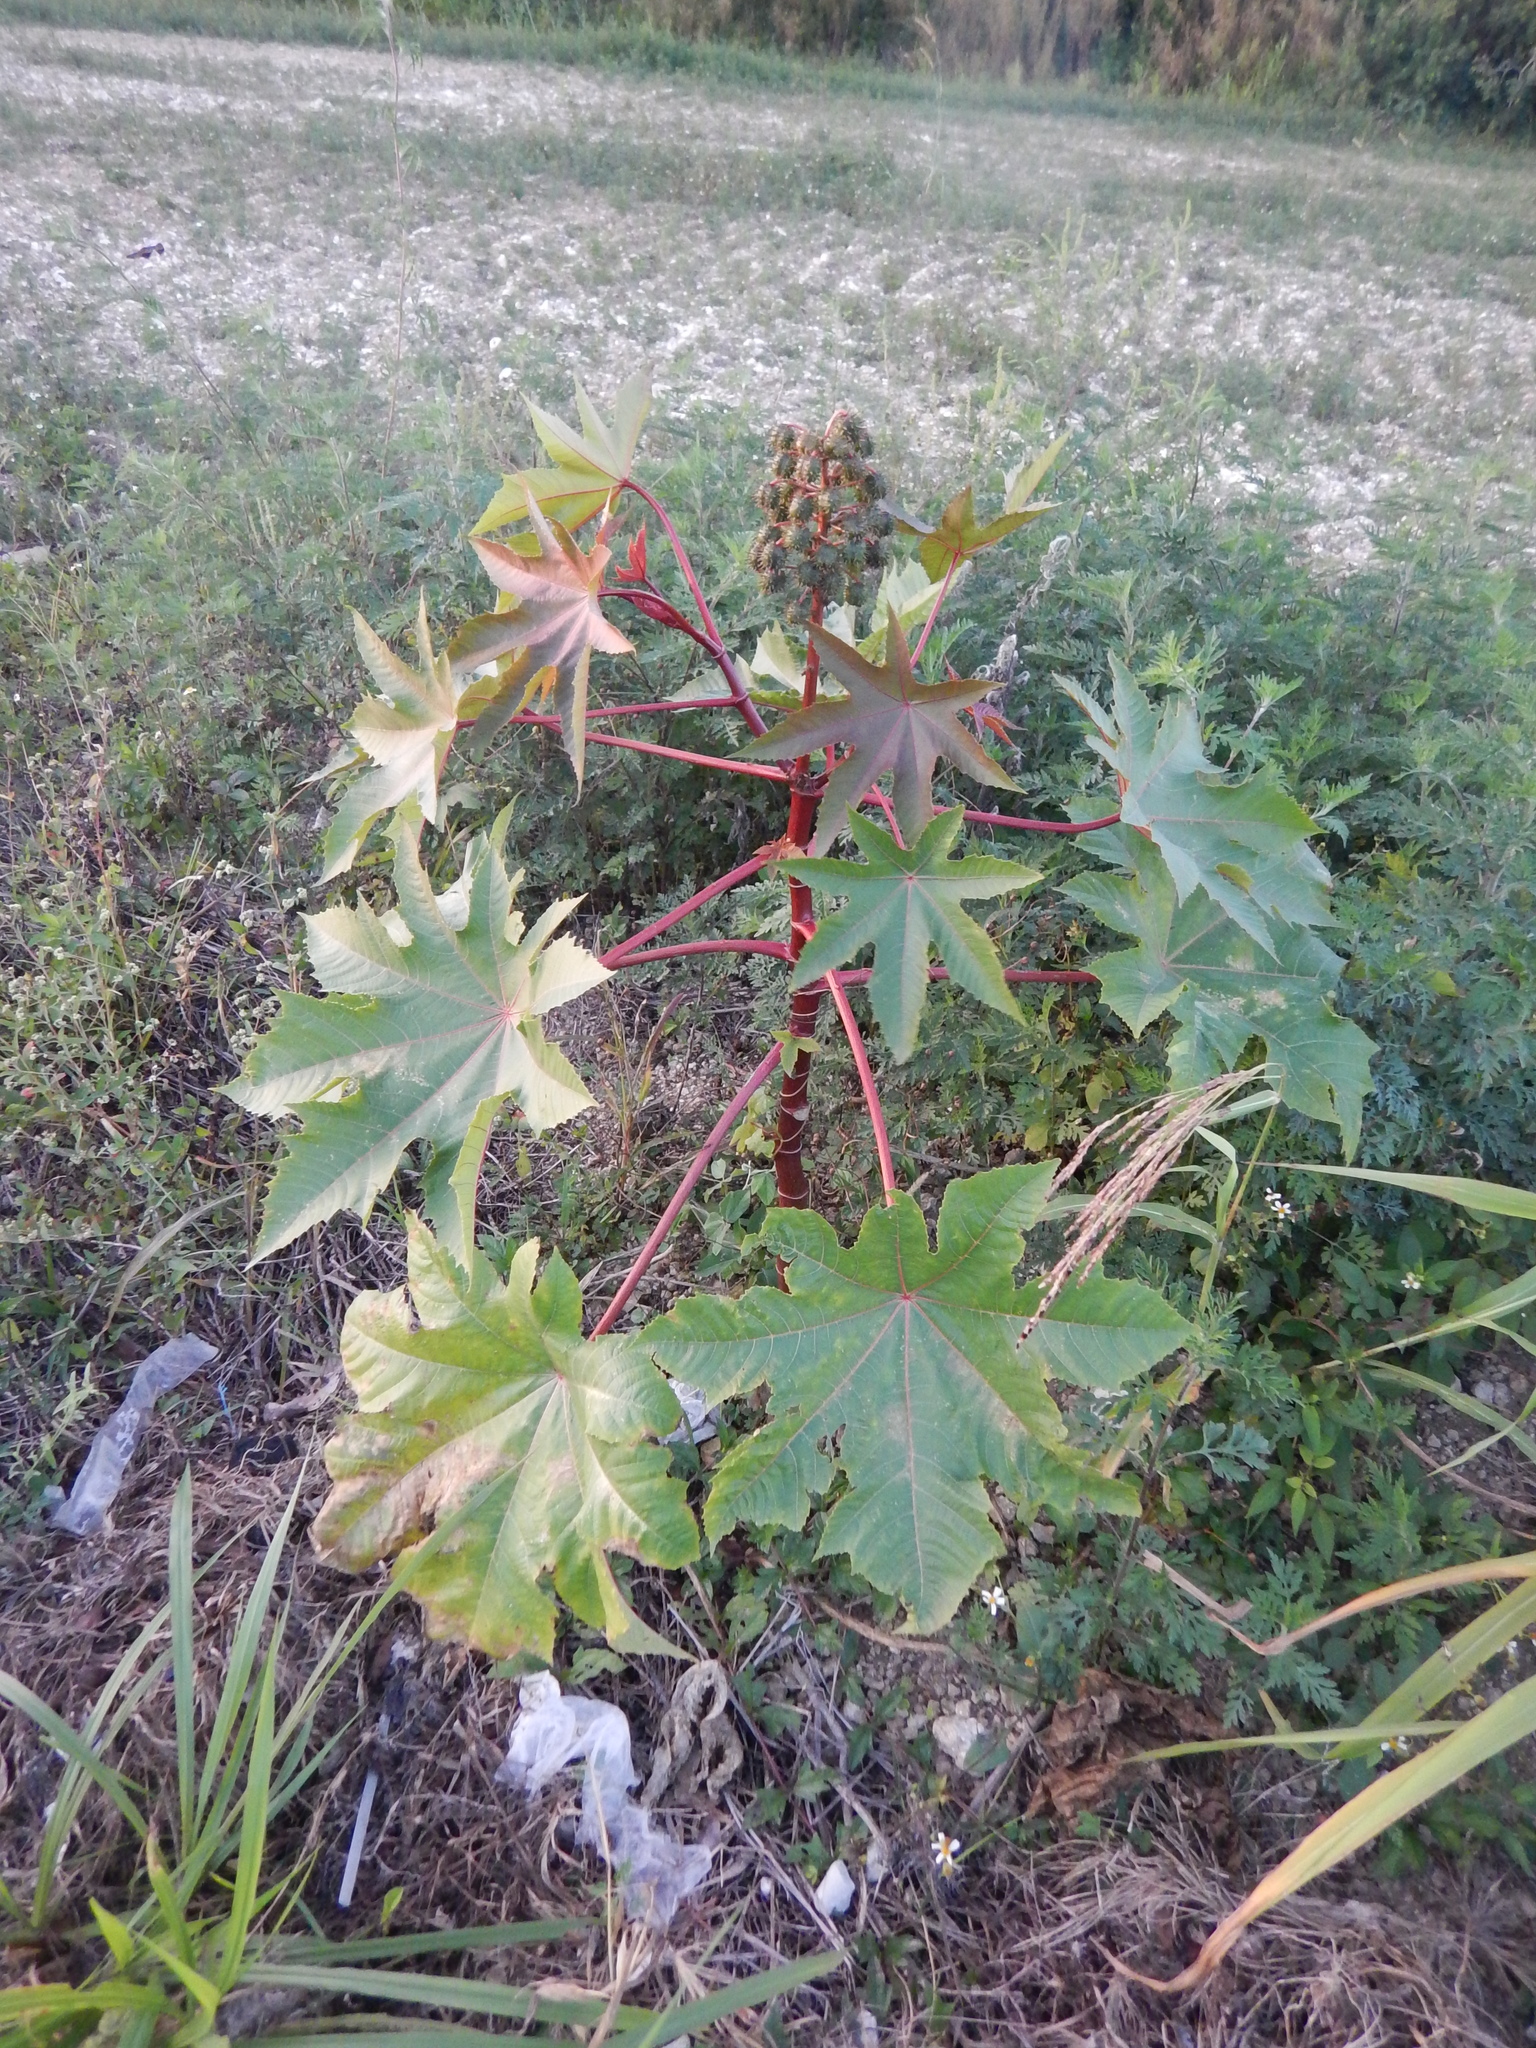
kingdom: Plantae
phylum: Tracheophyta
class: Magnoliopsida
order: Malpighiales
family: Euphorbiaceae
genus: Ricinus
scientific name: Ricinus communis
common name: Castor-oil-plant
